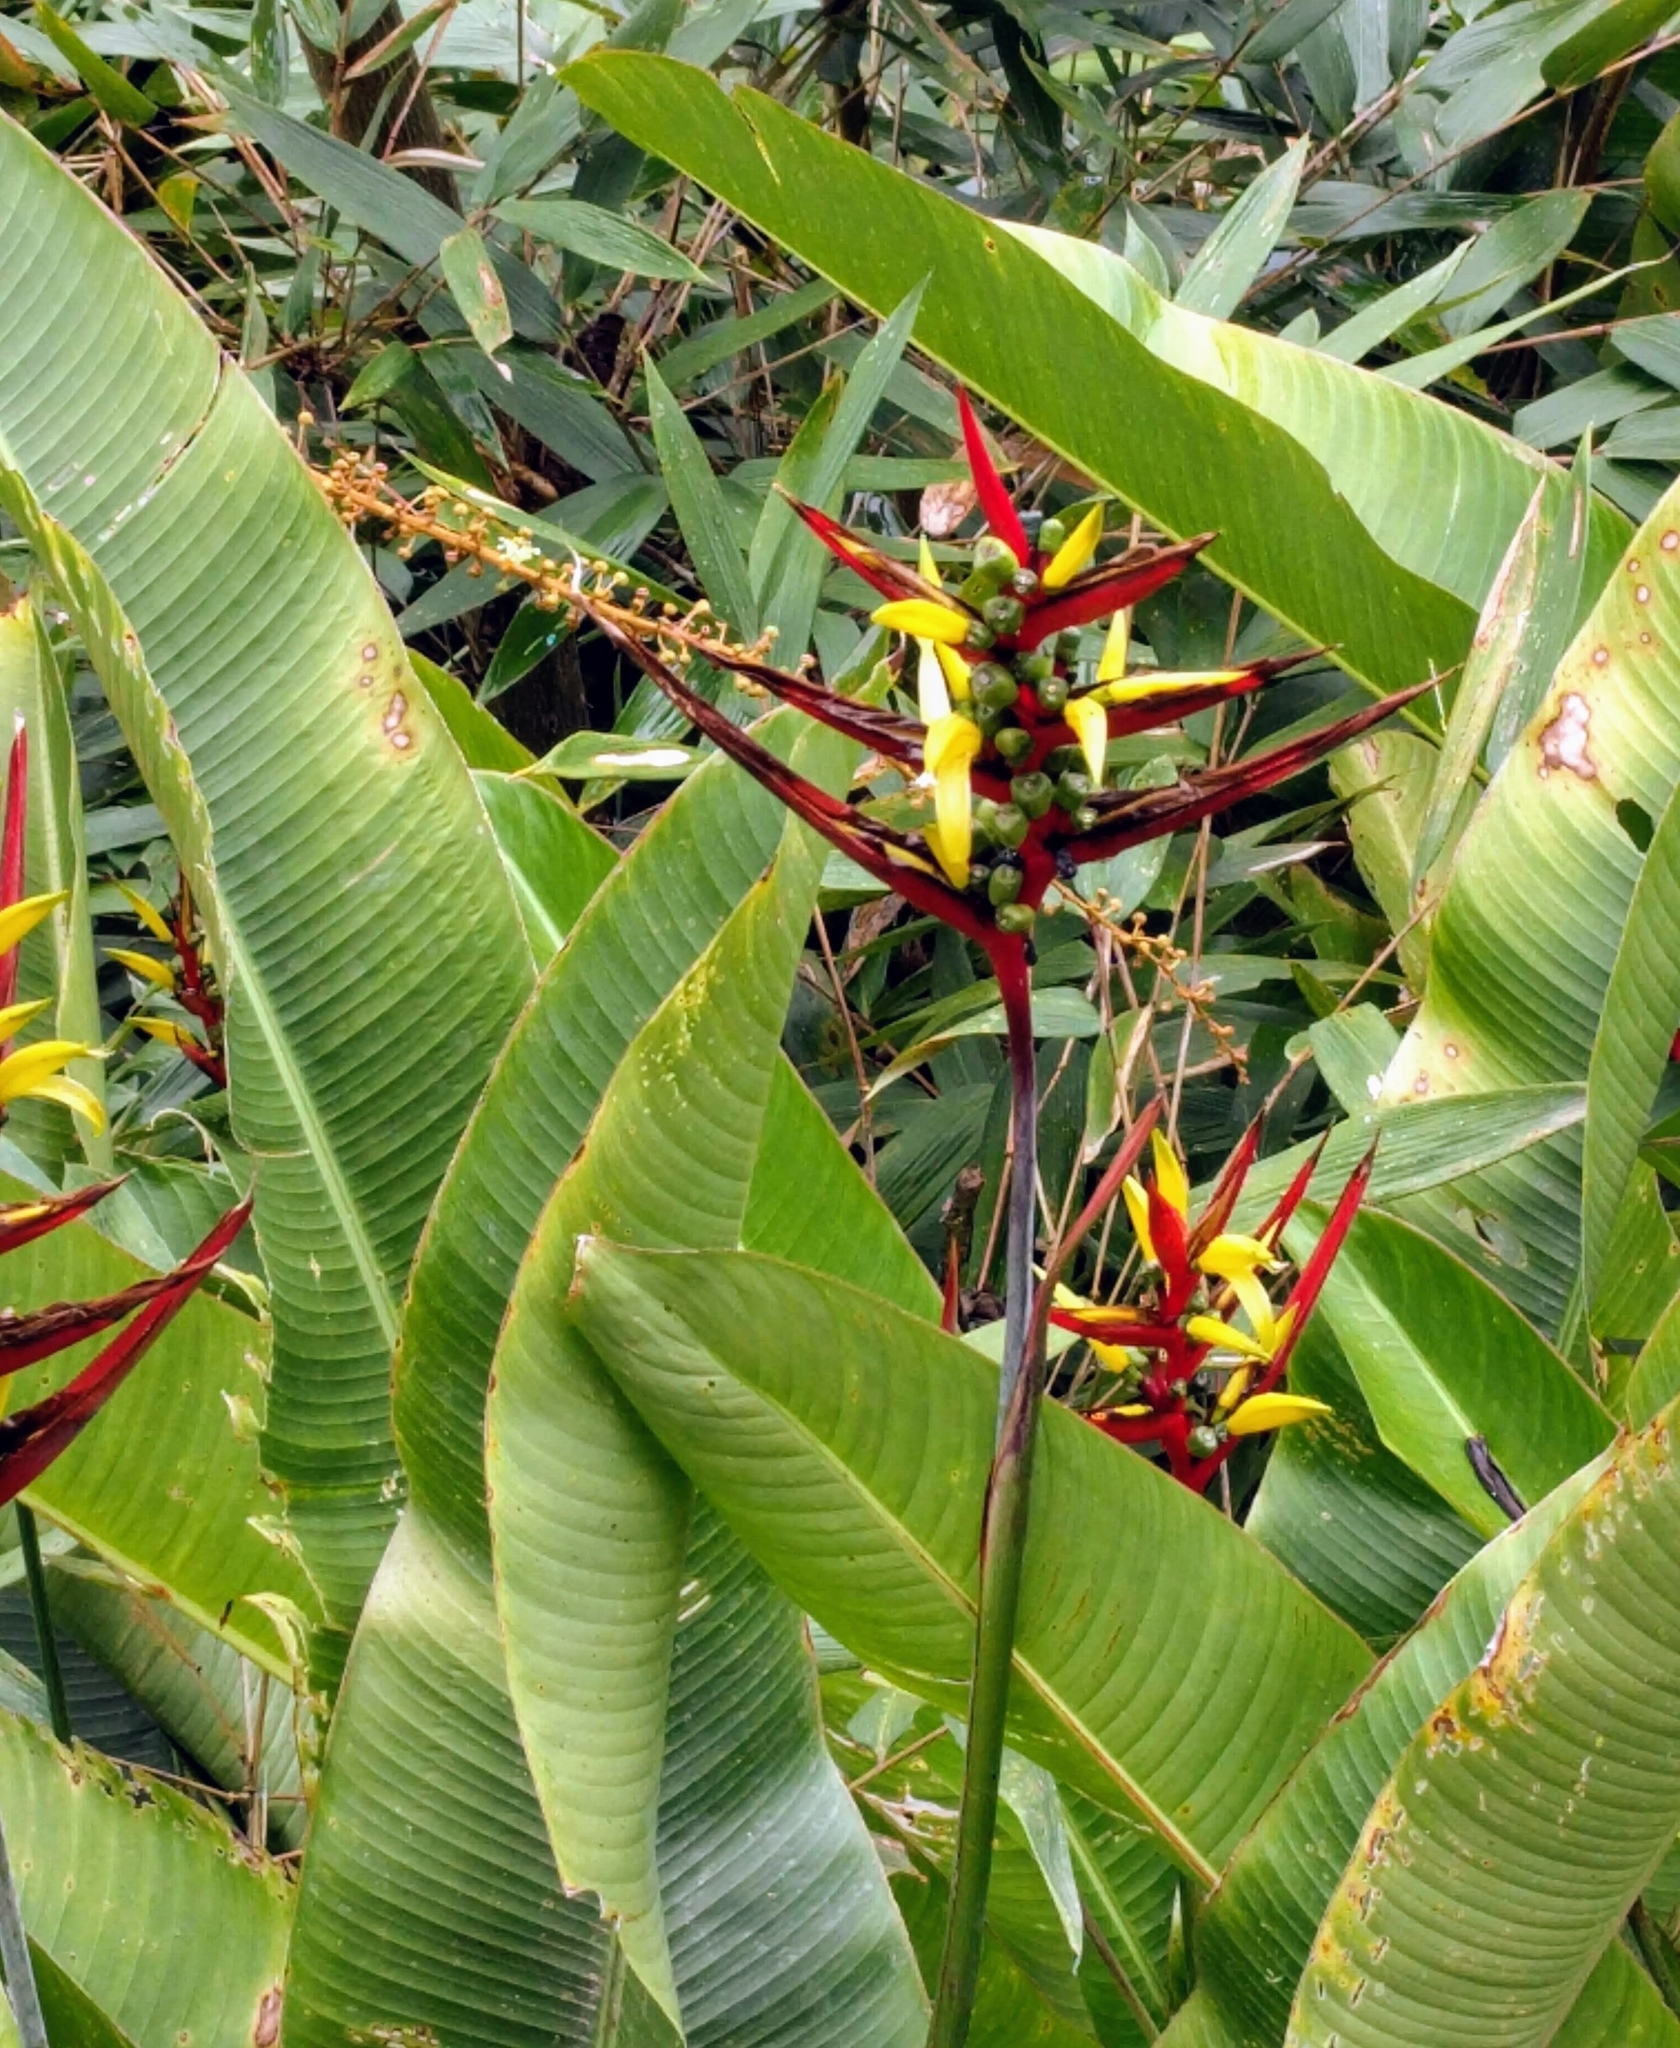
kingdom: Plantae
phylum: Tracheophyta
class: Liliopsida
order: Zingiberales
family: Heliconiaceae
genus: Heliconia
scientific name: Heliconia hirsuta
